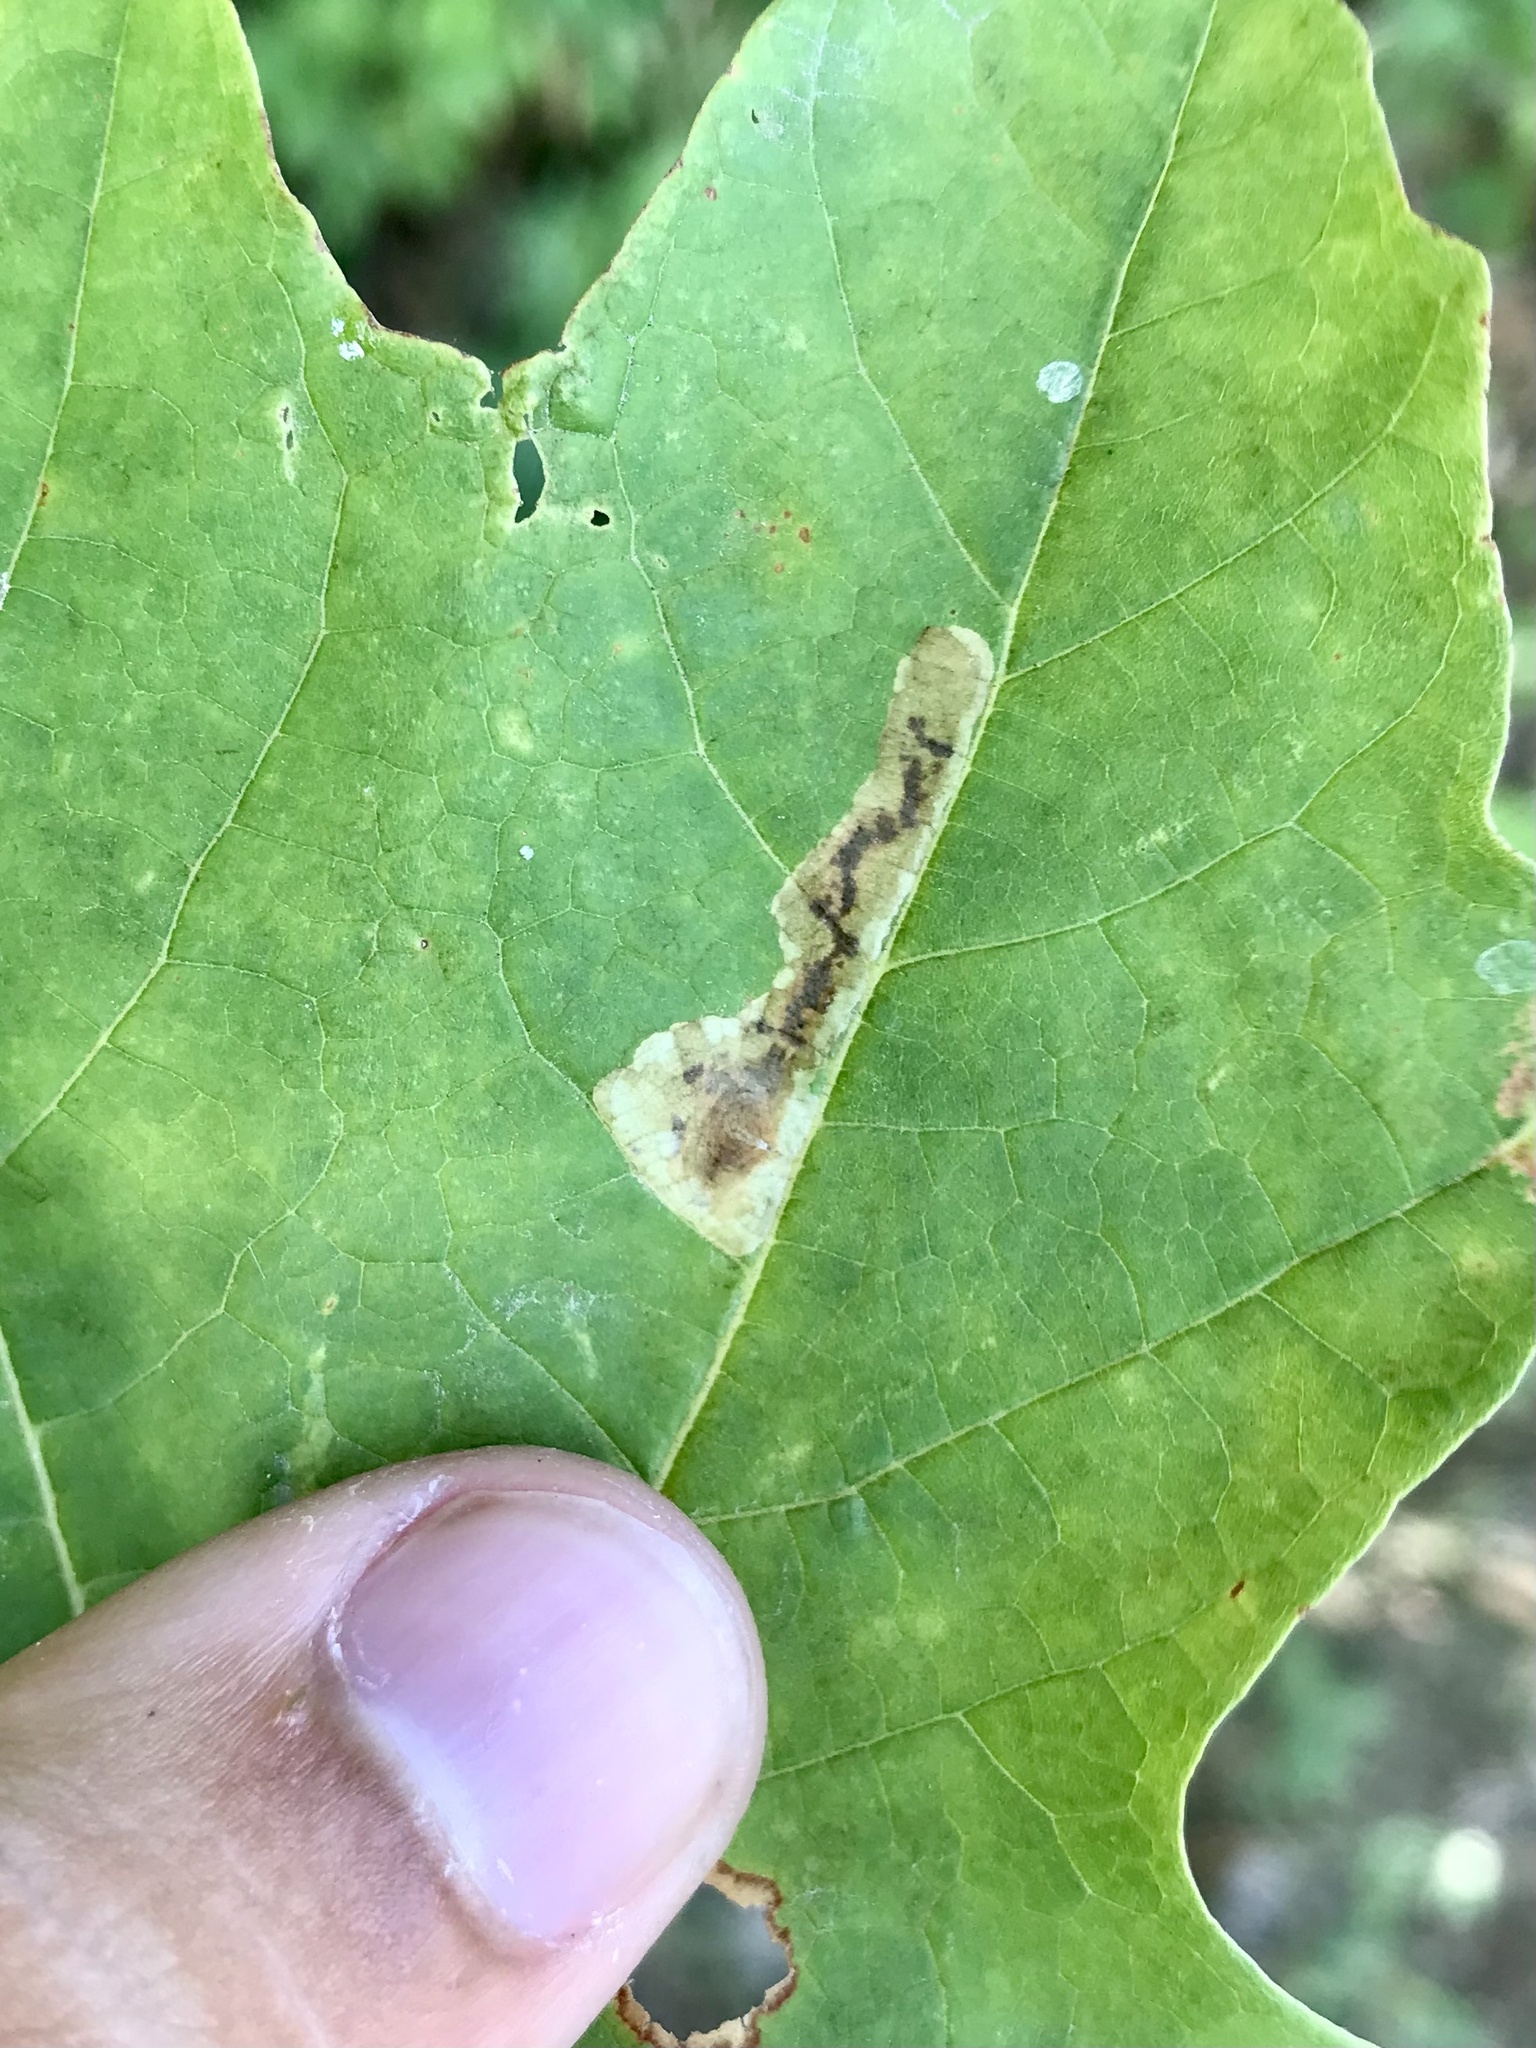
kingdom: Animalia
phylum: Arthropoda
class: Insecta
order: Lepidoptera
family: Gracillariidae
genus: Cameraria
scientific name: Cameraria saccharella
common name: Sugar maple blotchminer
